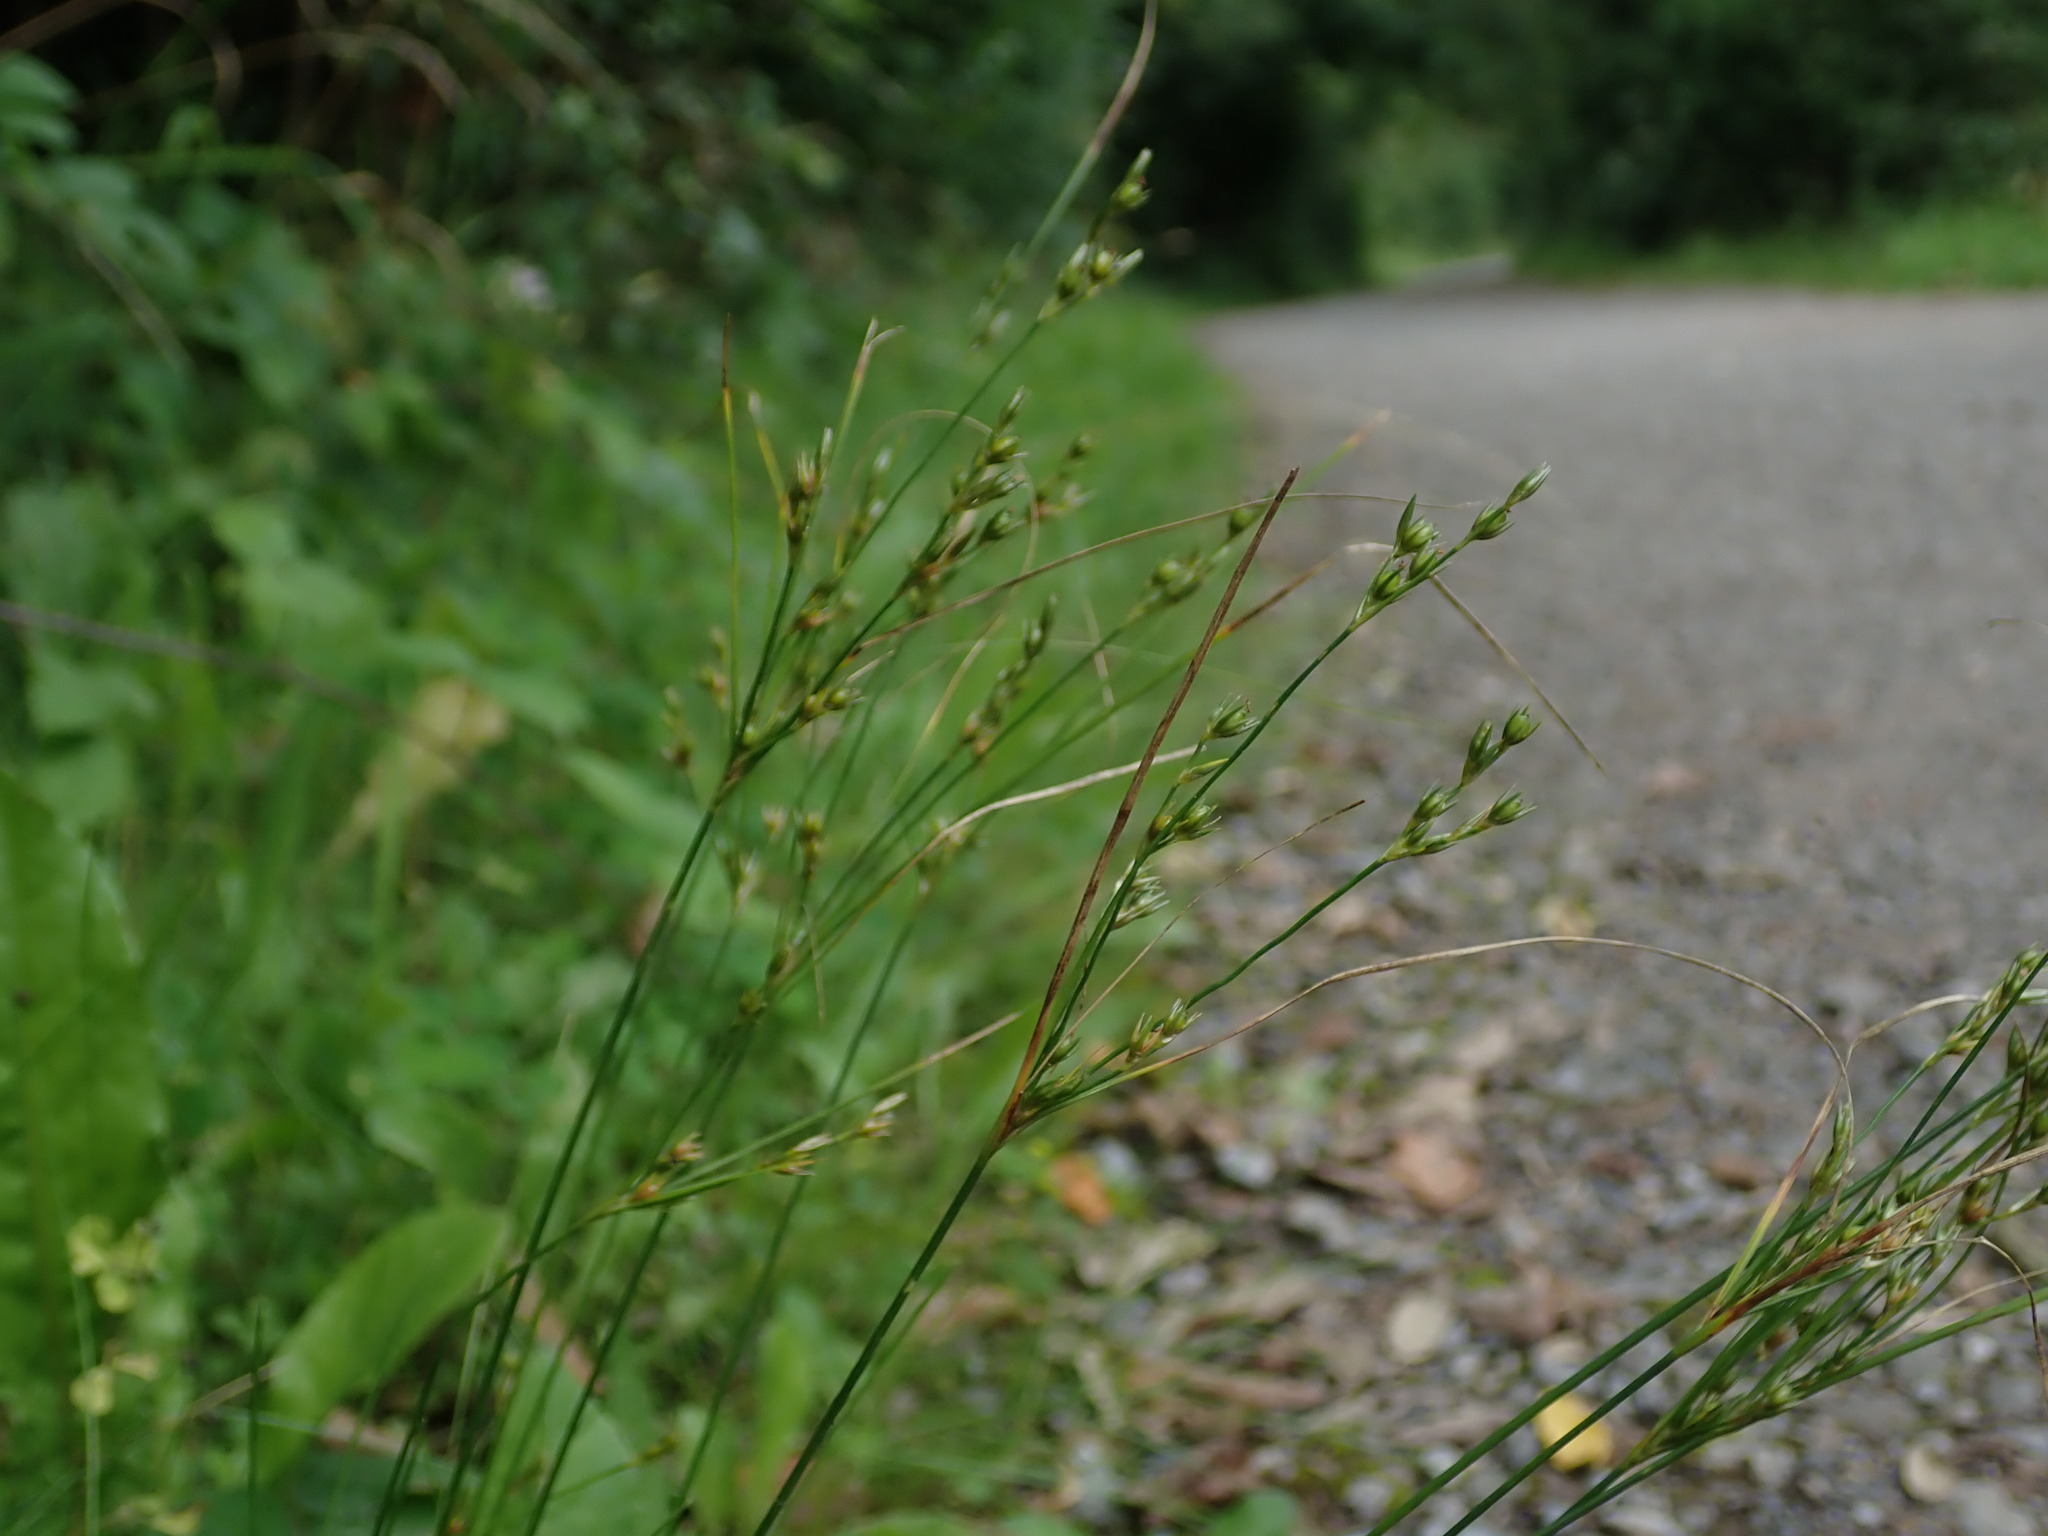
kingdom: Plantae
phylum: Tracheophyta
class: Liliopsida
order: Poales
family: Juncaceae
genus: Juncus
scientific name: Juncus tenuis
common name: Slender rush
